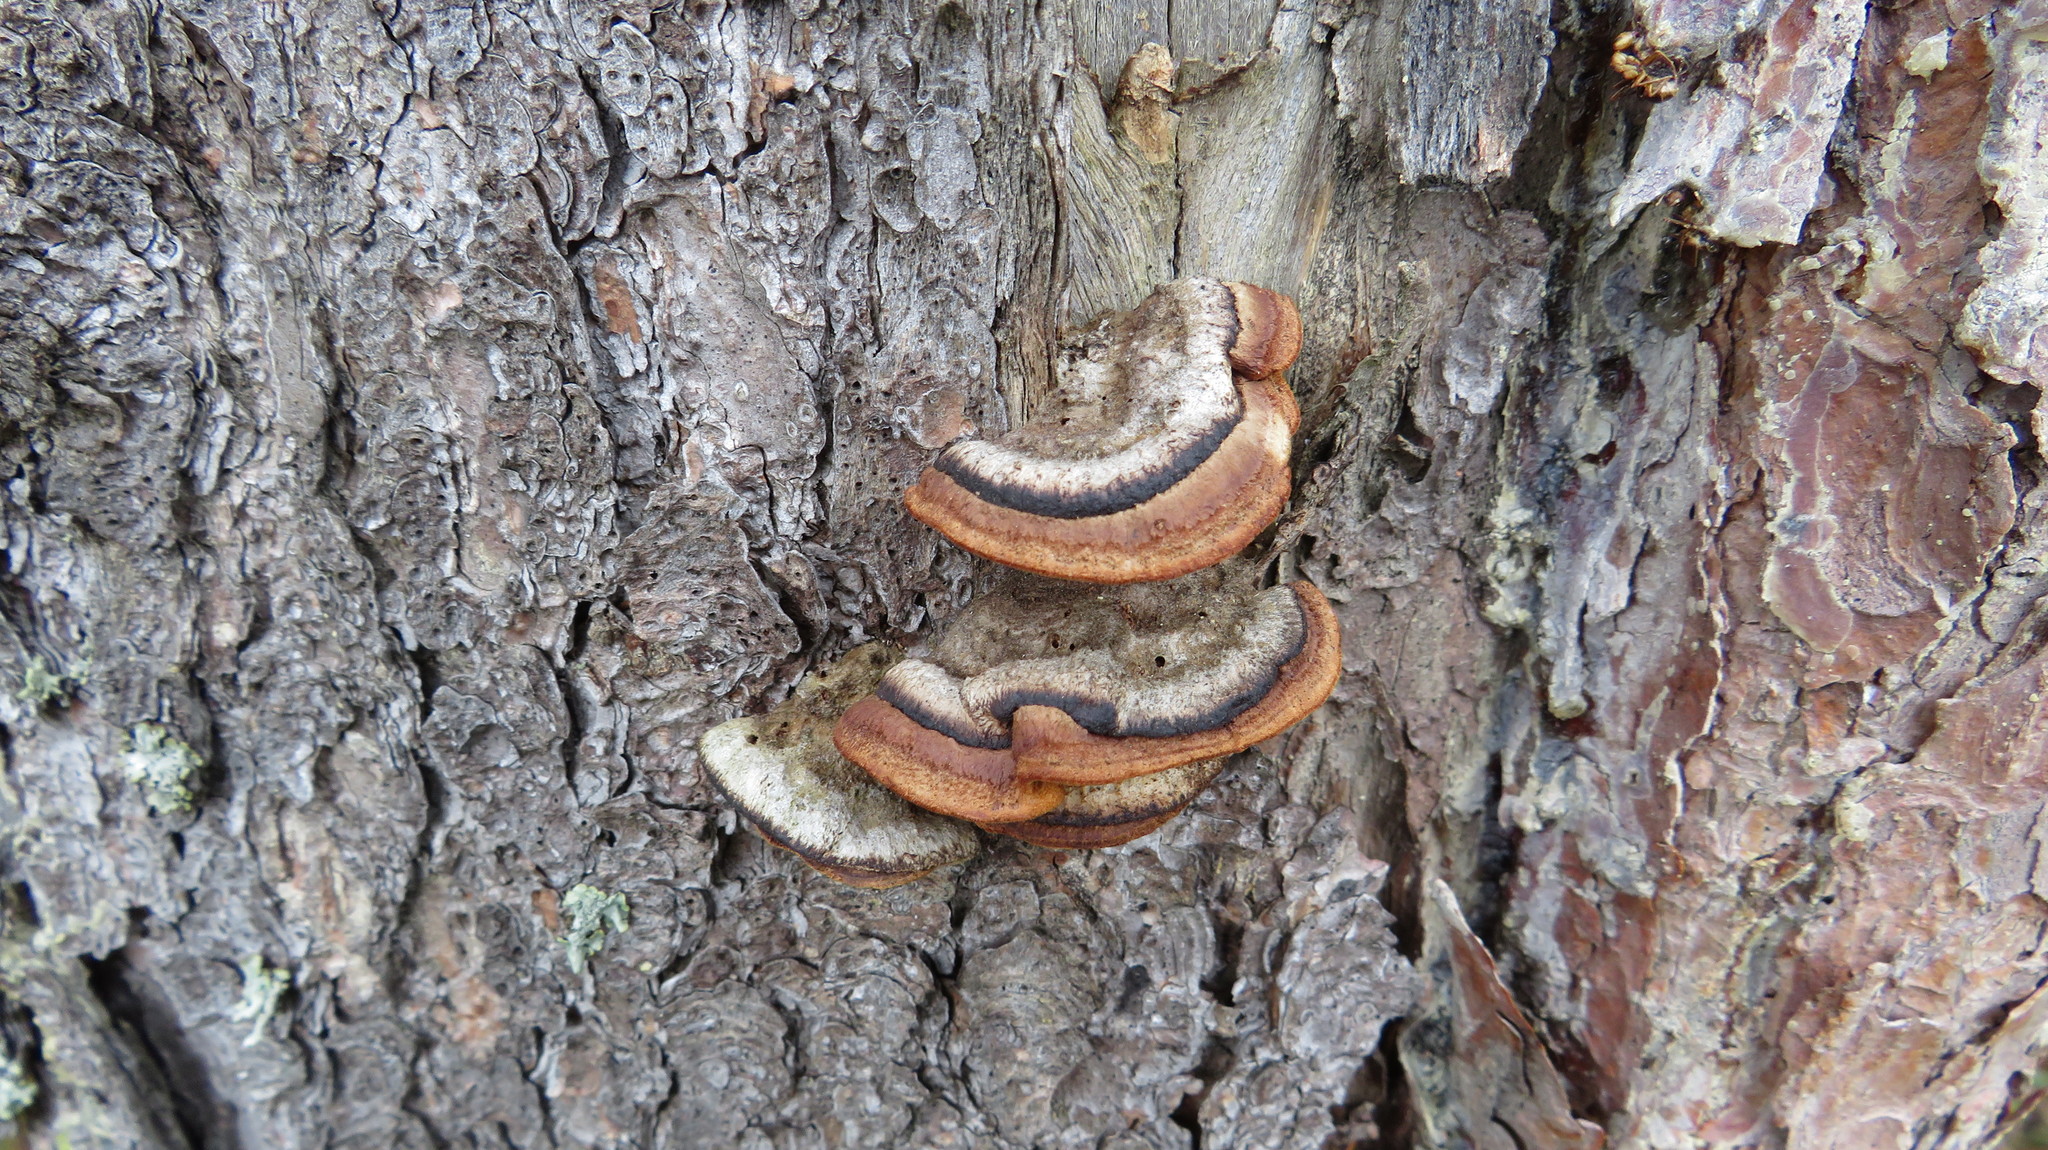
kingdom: Fungi
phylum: Basidiomycota
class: Agaricomycetes
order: Gloeophyllales
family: Gloeophyllaceae
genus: Gloeophyllum
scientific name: Gloeophyllum sepiarium
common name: Conifer mazegill
